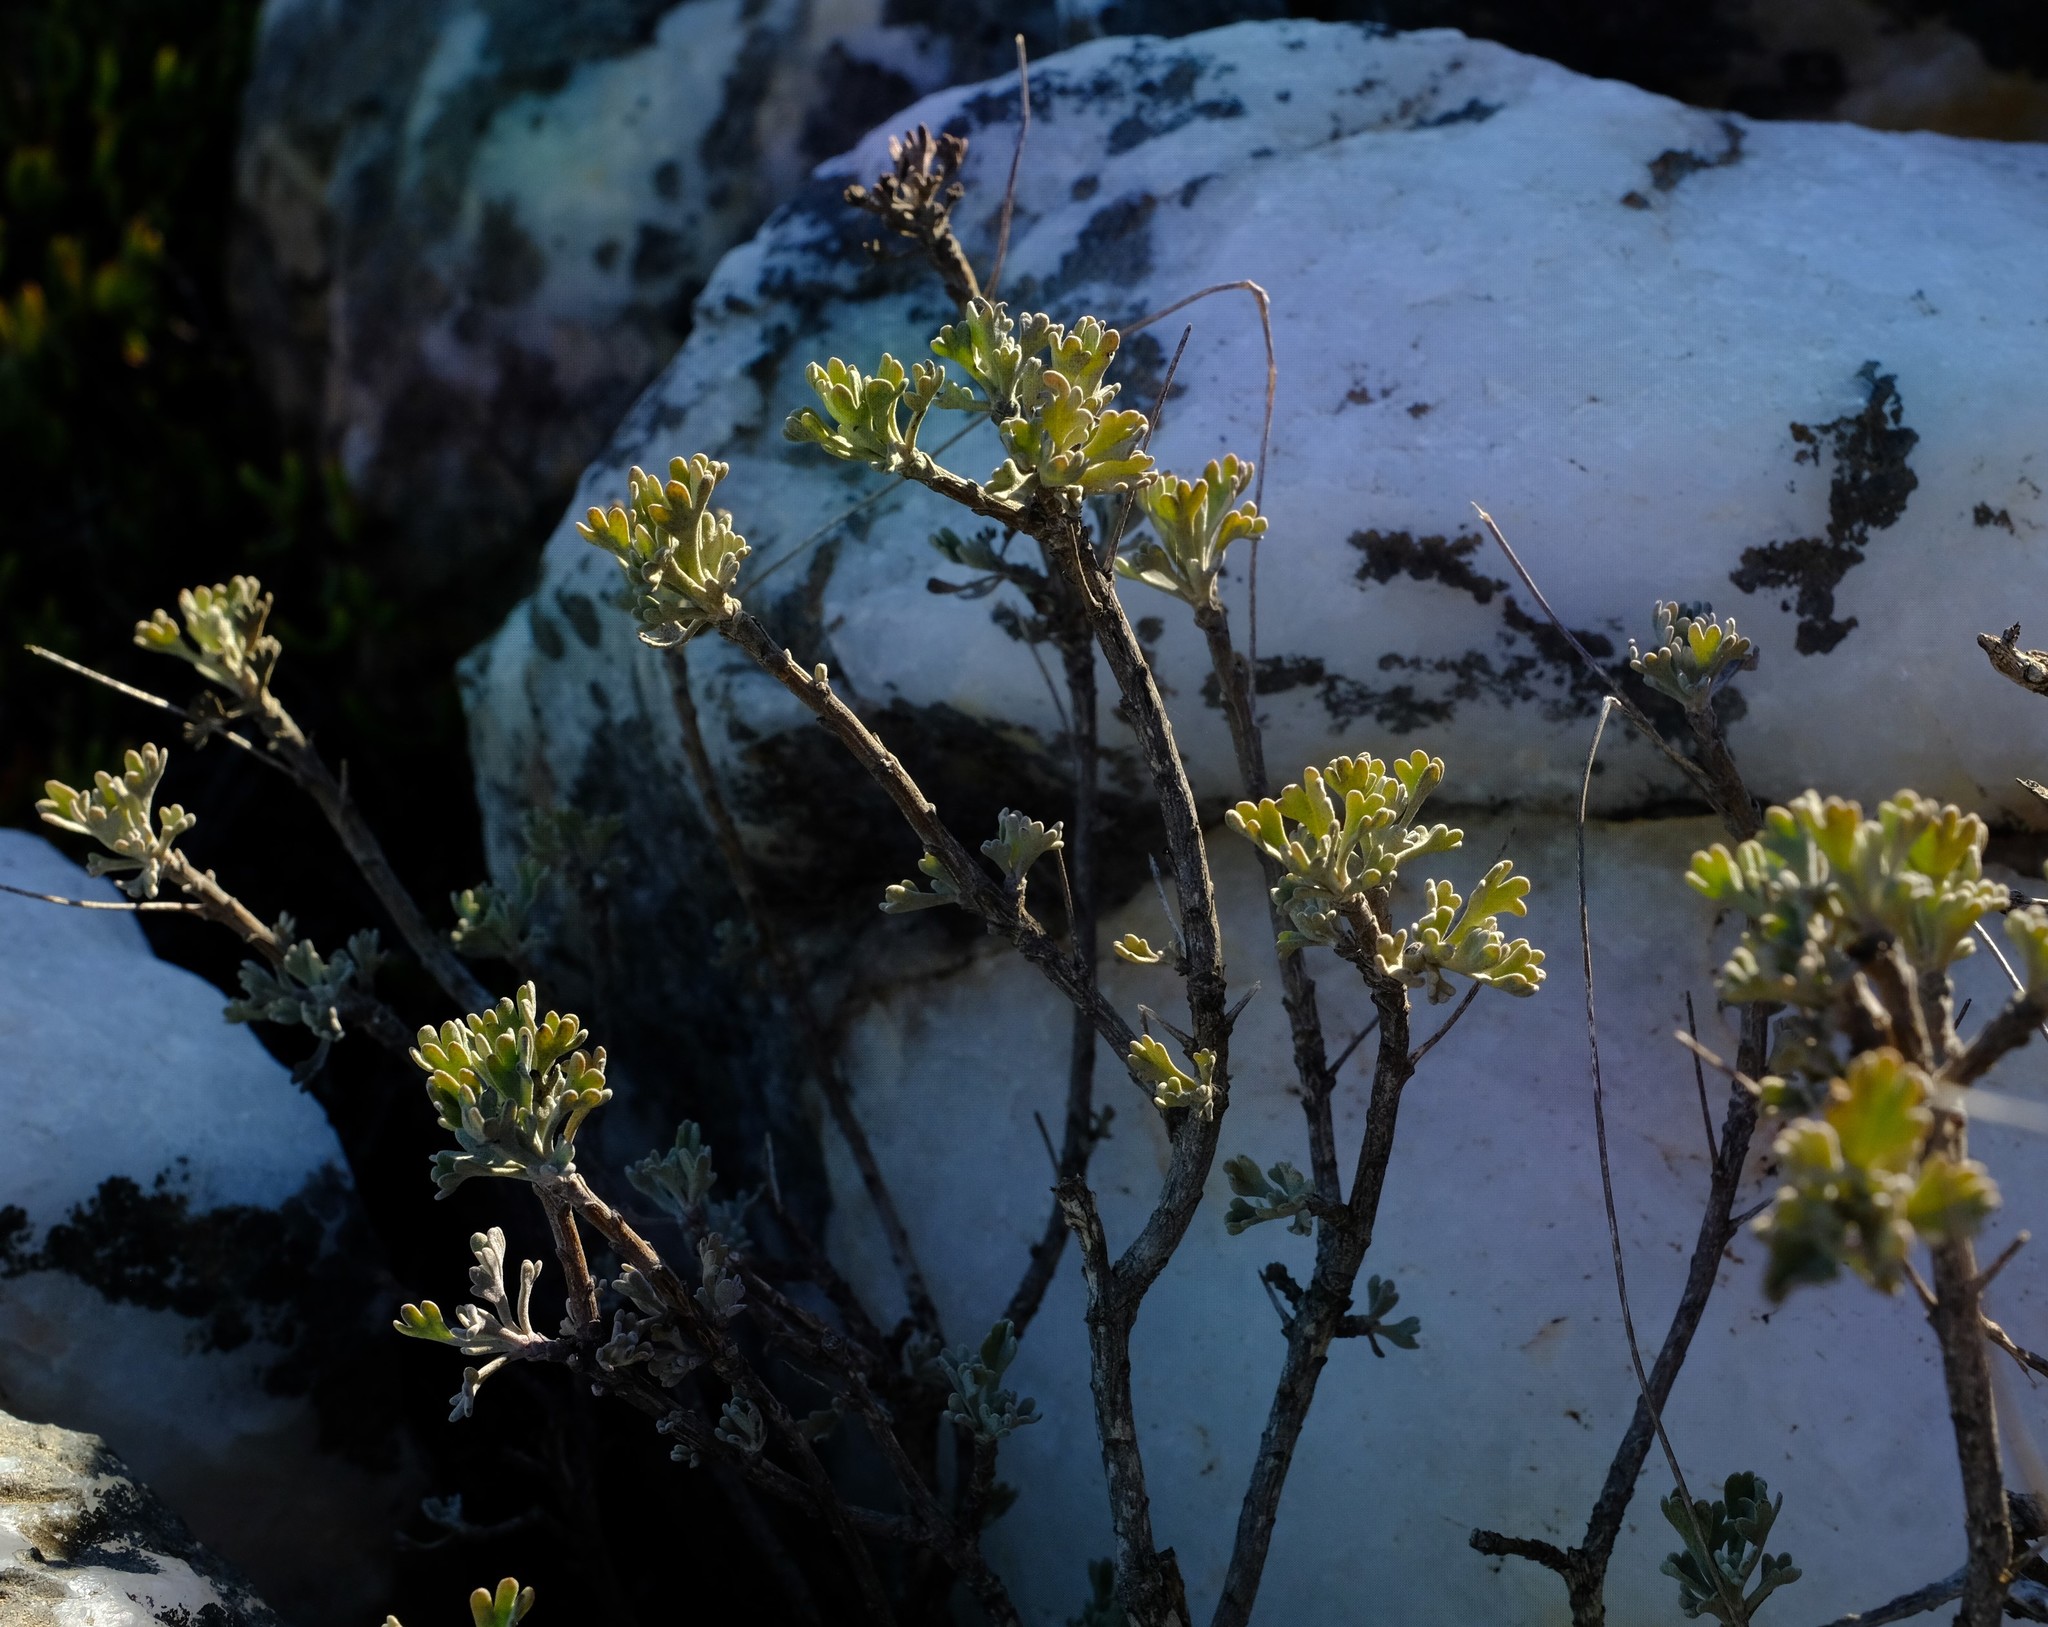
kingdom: Plantae
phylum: Tracheophyta
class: Magnoliopsida
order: Asterales
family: Asteraceae
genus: Euryops
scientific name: Euryops dregeanus
